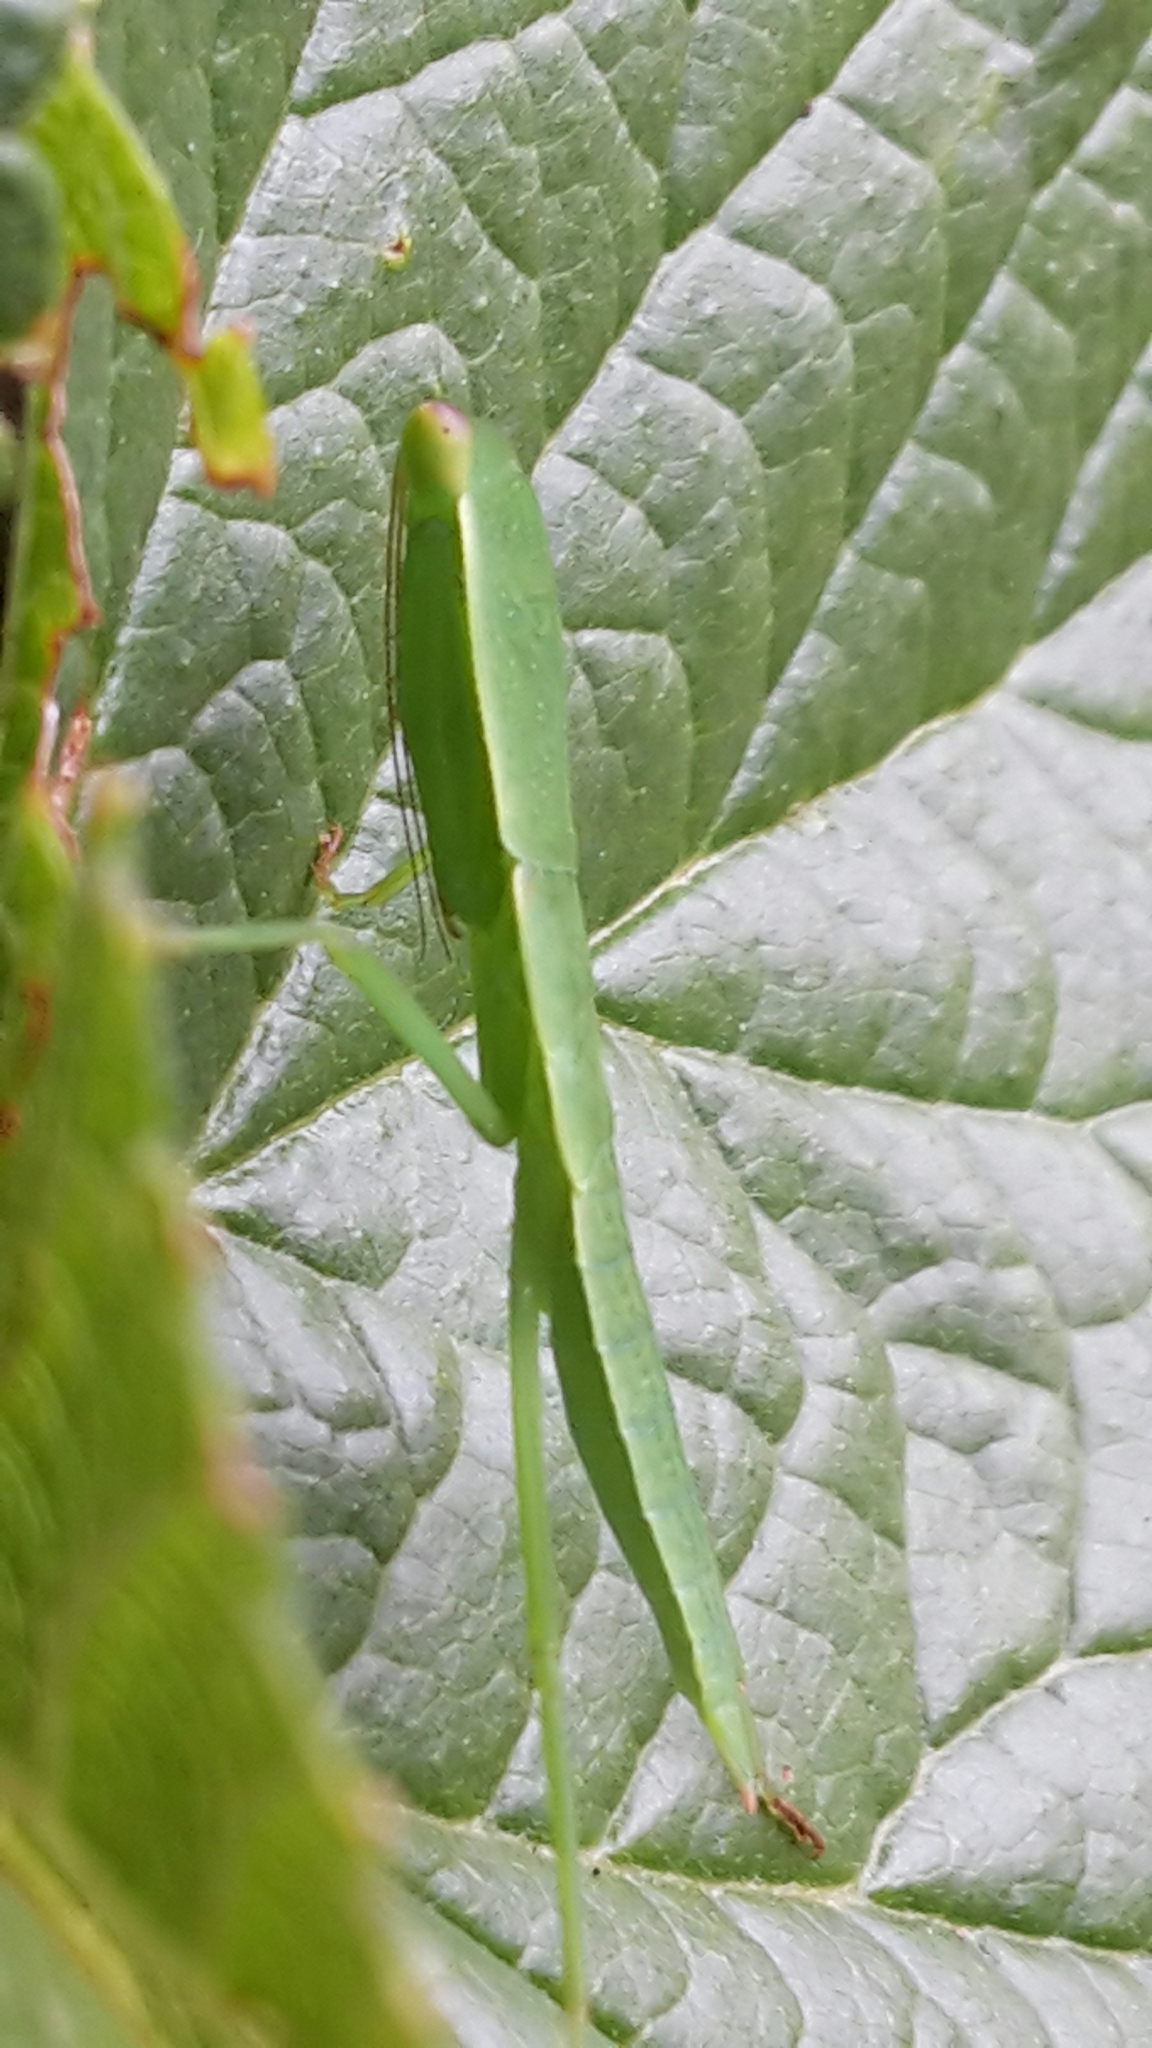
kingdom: Animalia
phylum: Arthropoda
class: Insecta
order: Mantodea
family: Mantidae
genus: Orthodera
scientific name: Orthodera novaezealandiae
